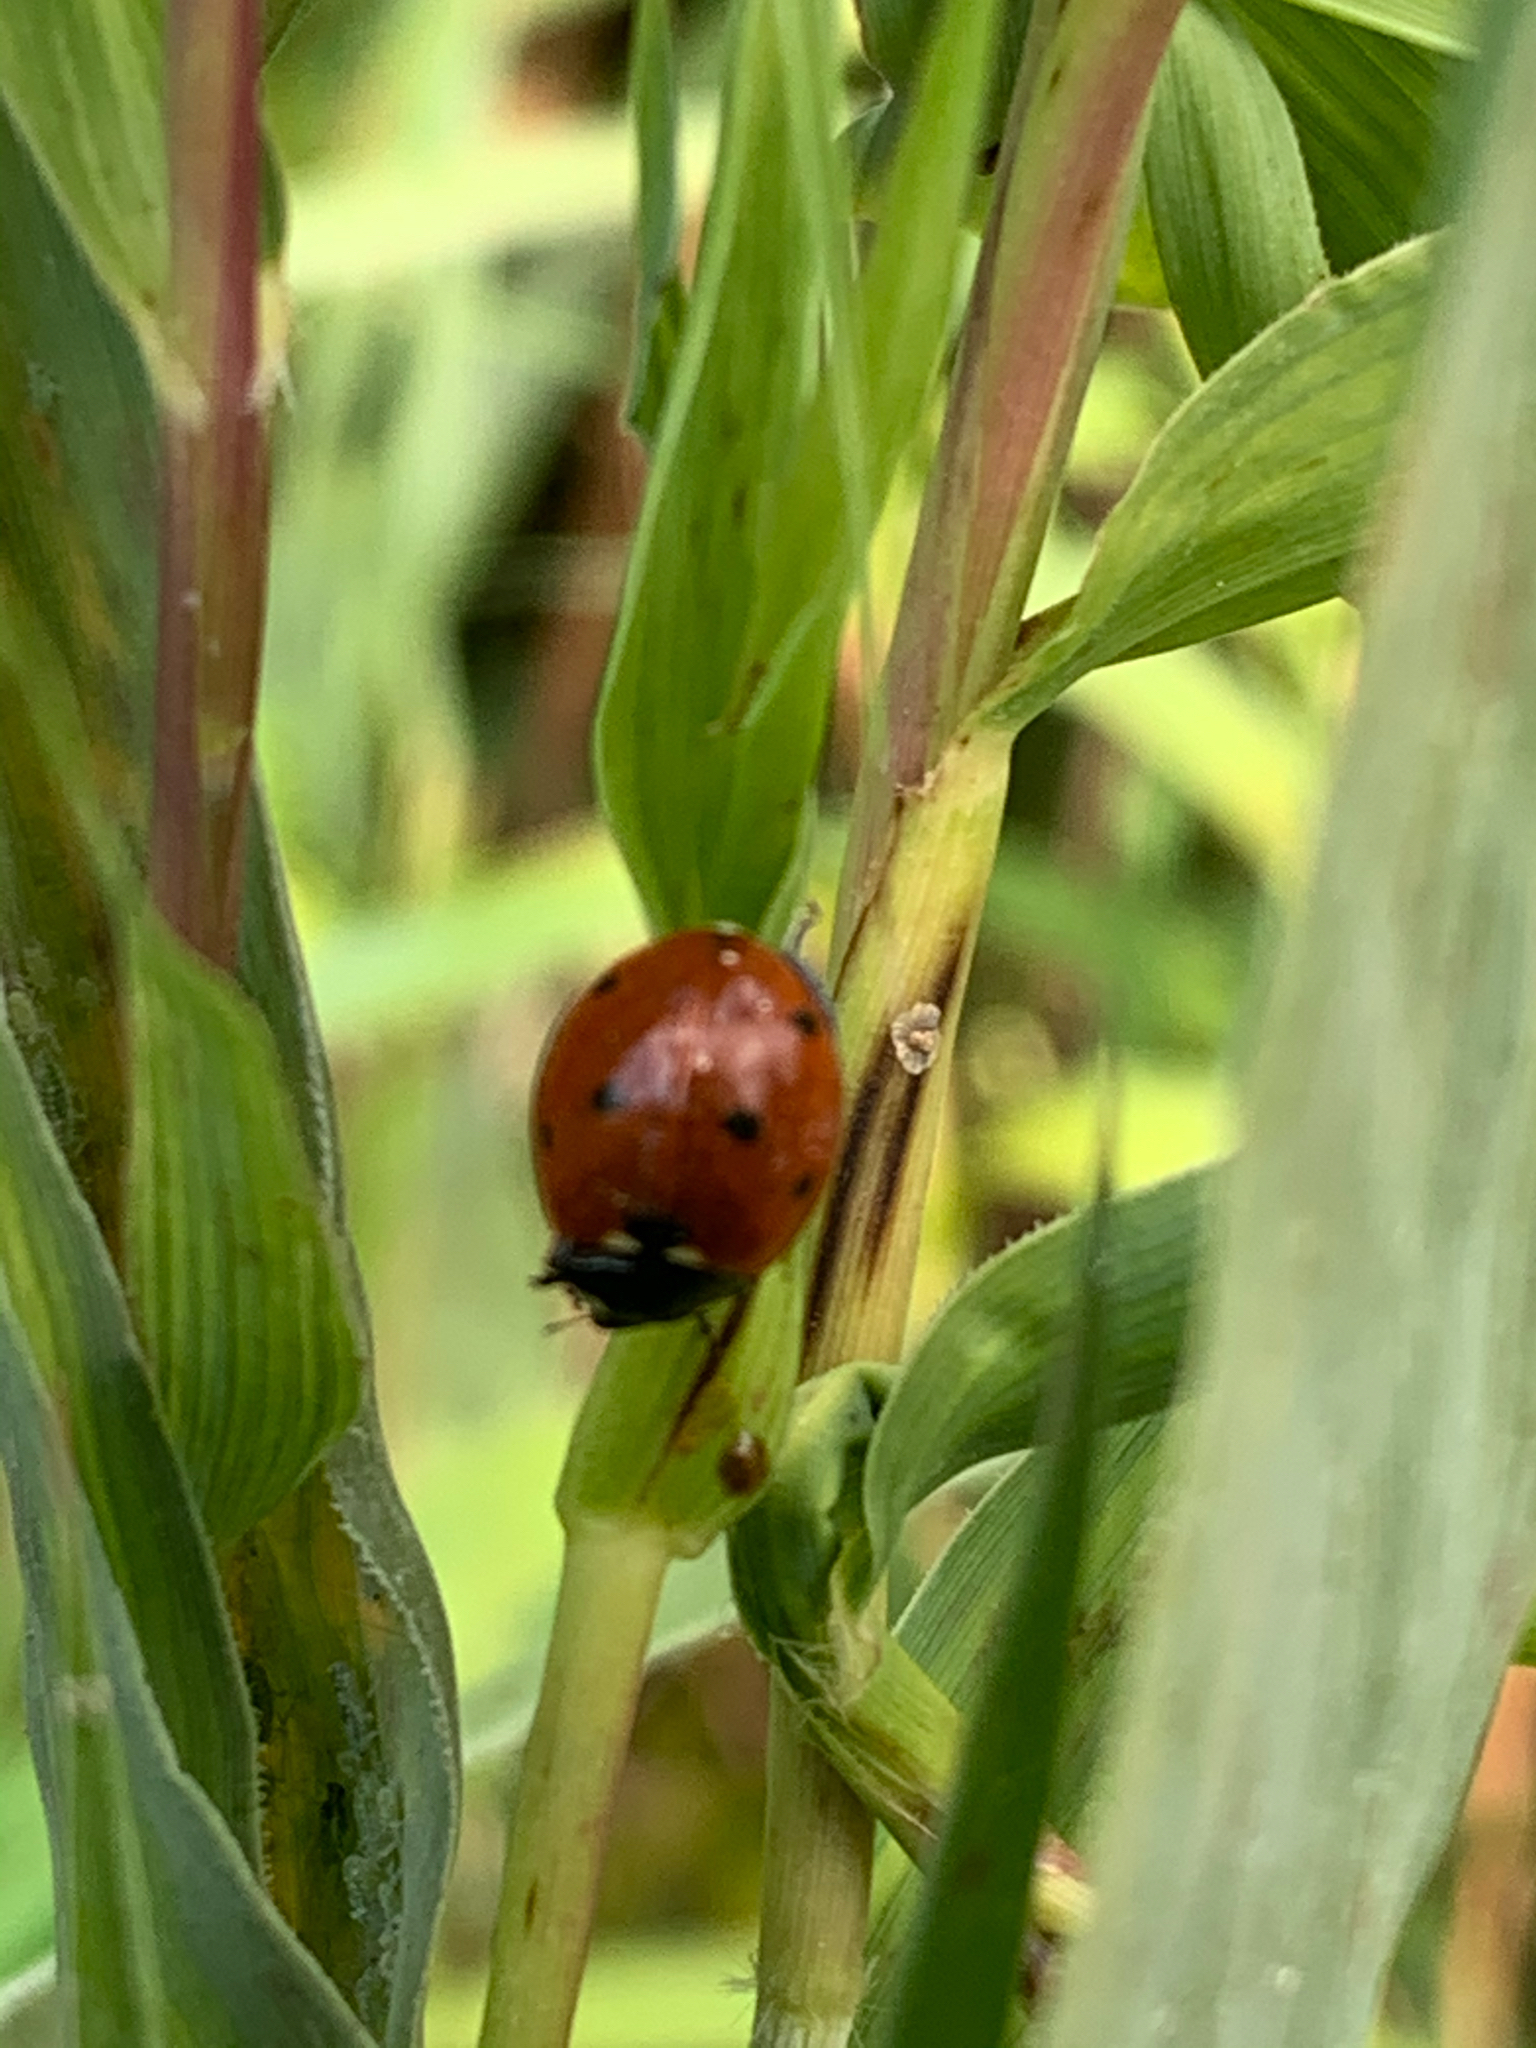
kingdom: Animalia
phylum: Arthropoda
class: Insecta
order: Coleoptera
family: Coccinellidae
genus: Coccinella
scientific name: Coccinella septempunctata
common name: Sevenspotted lady beetle
